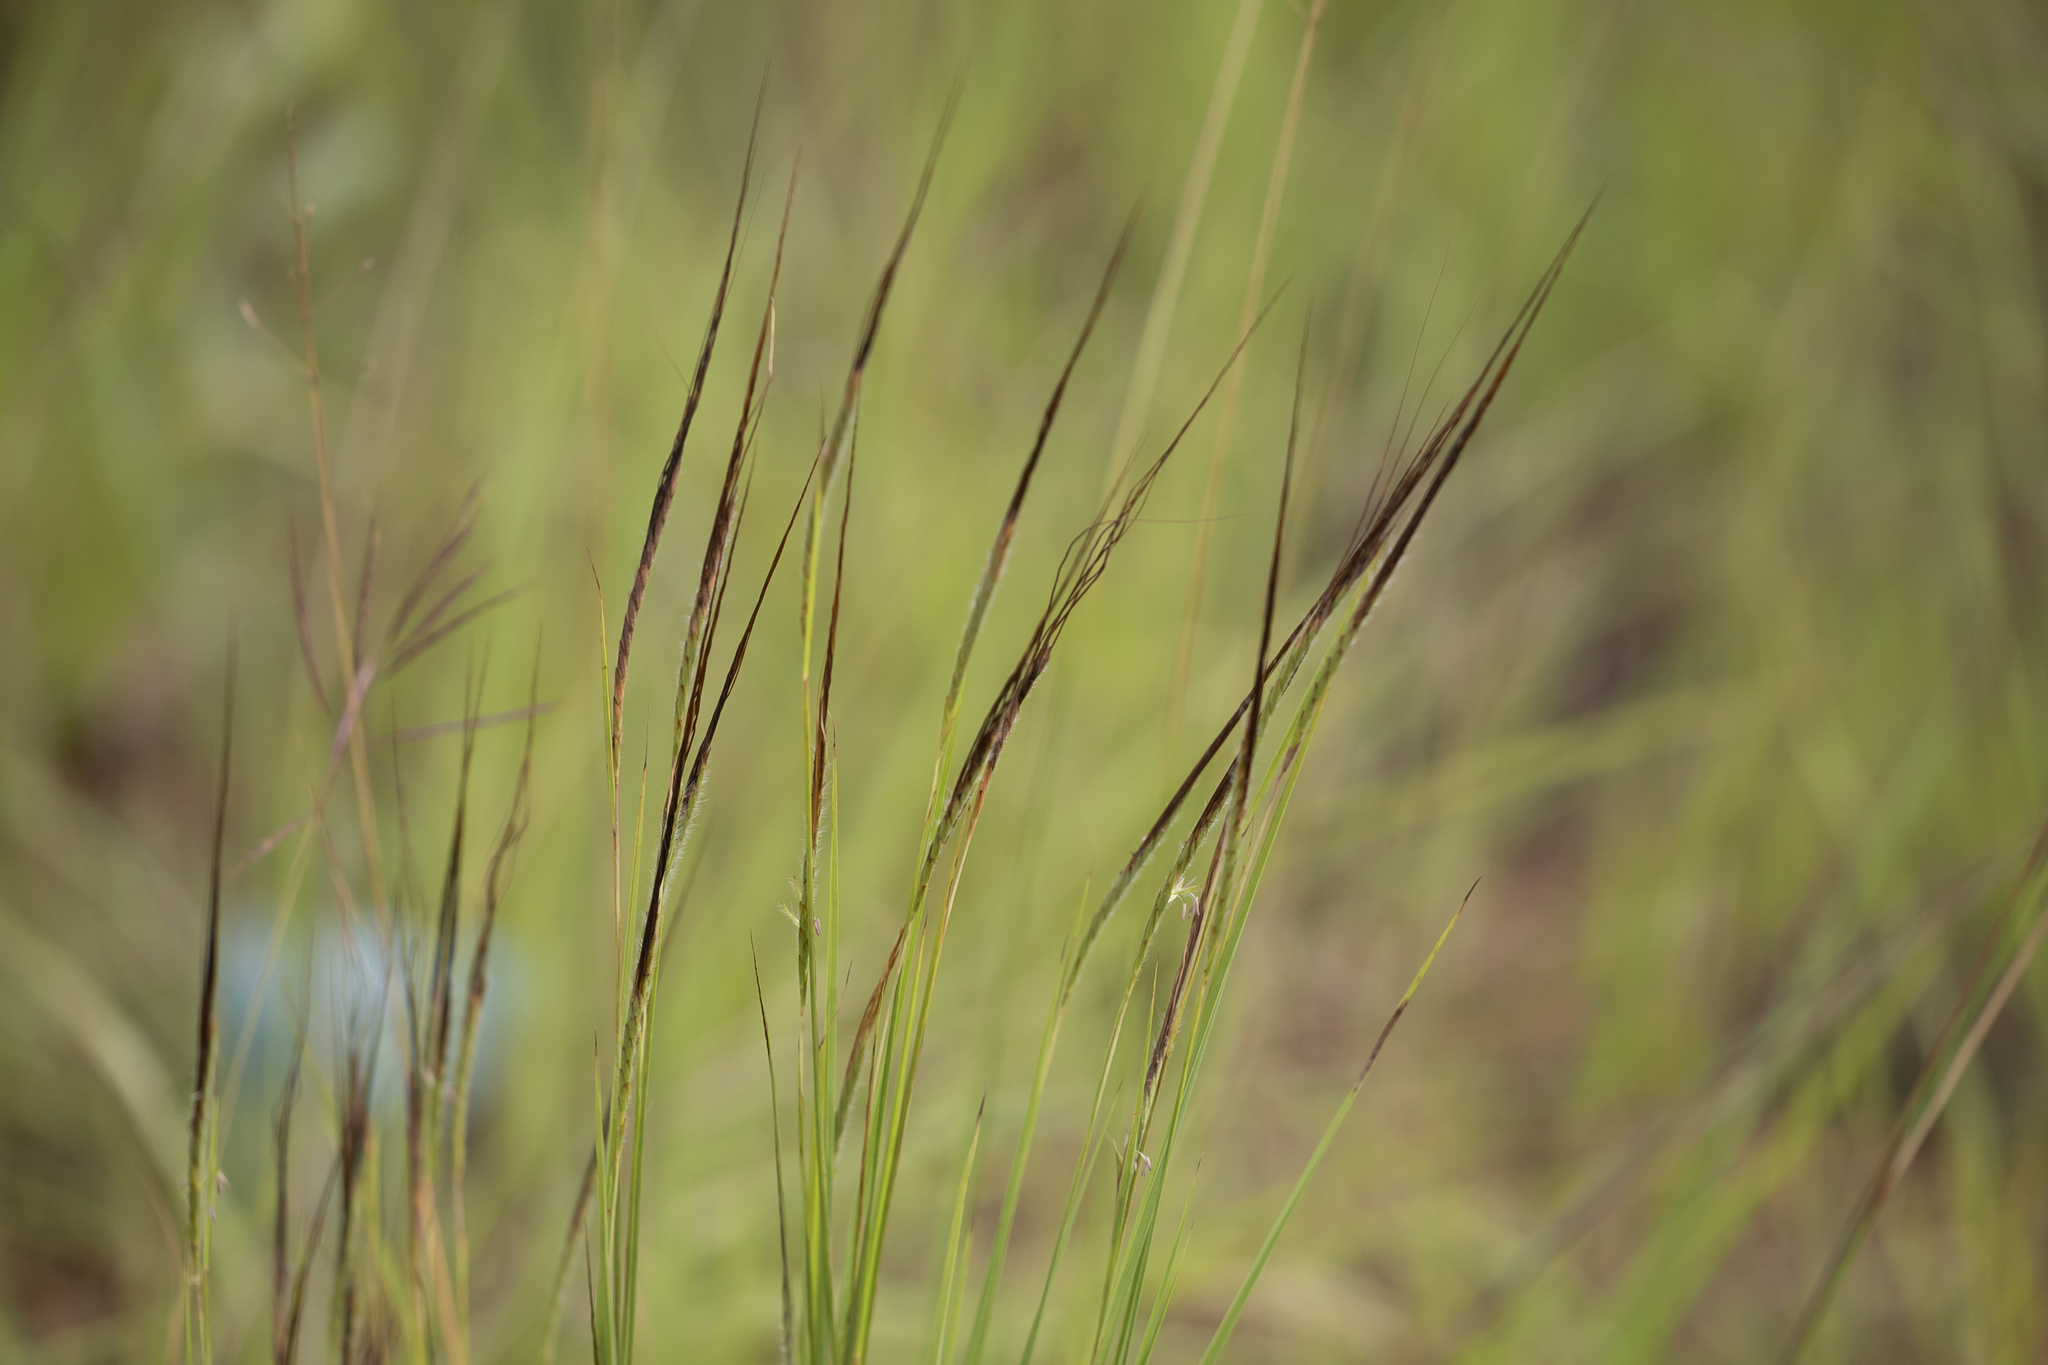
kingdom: Plantae
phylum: Tracheophyta
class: Liliopsida
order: Poales
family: Poaceae
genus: Heteropogon
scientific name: Heteropogon contortus
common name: Tanglehead
